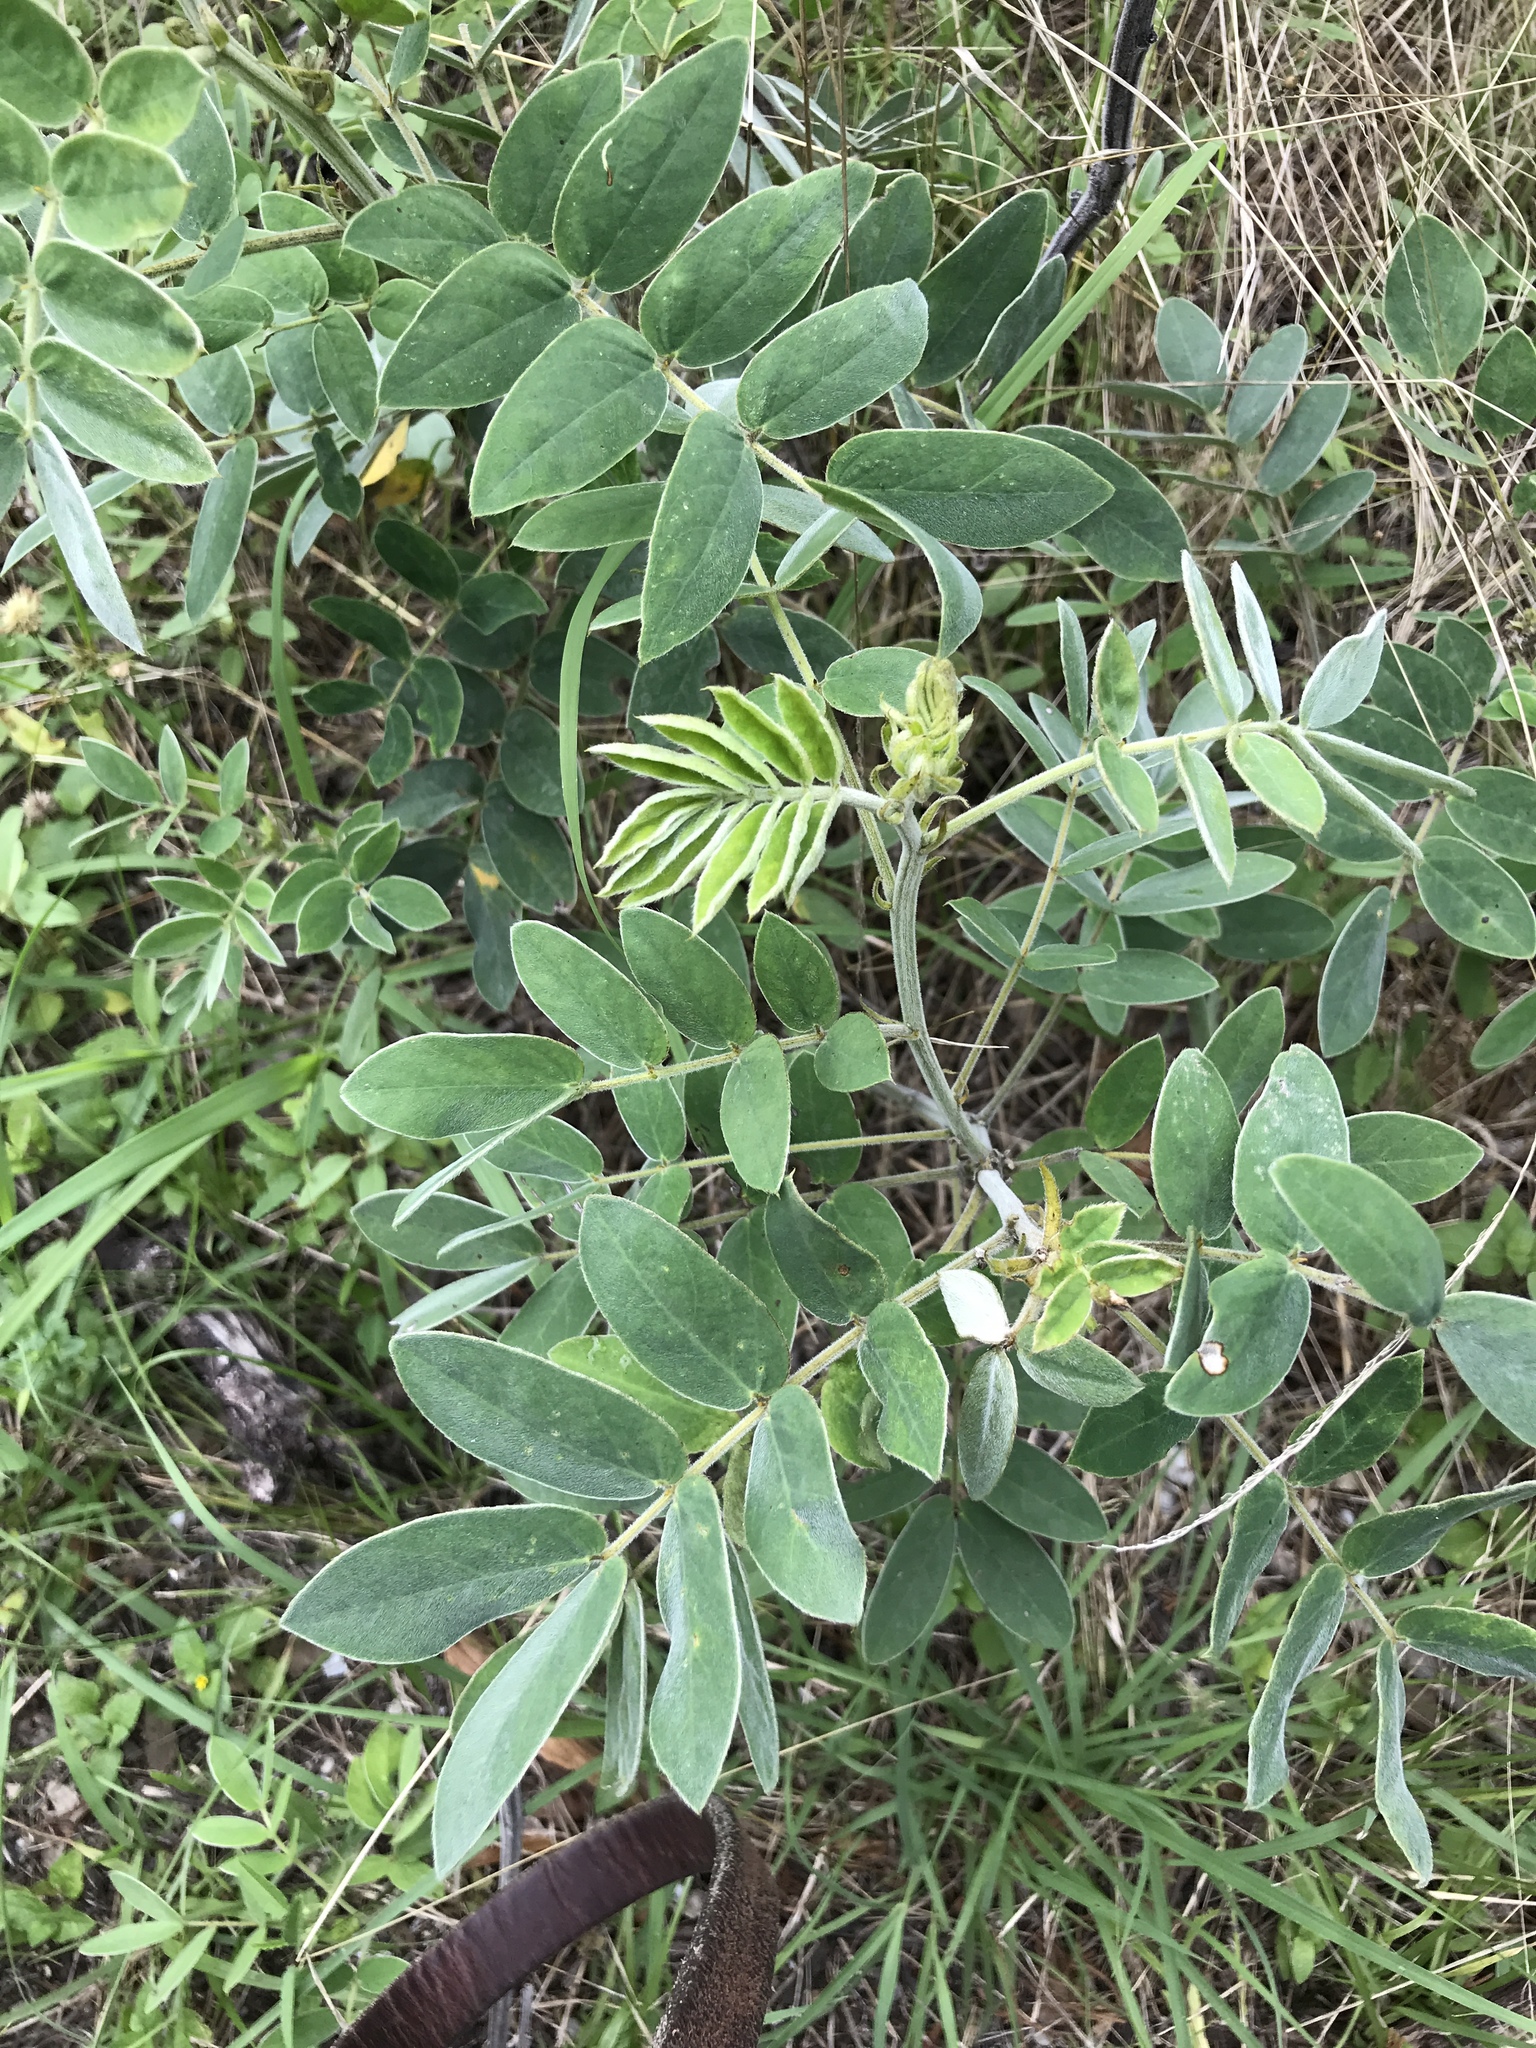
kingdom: Plantae
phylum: Tracheophyta
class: Magnoliopsida
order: Fabales
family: Fabaceae
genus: Senna
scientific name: Senna lindheimeriana
